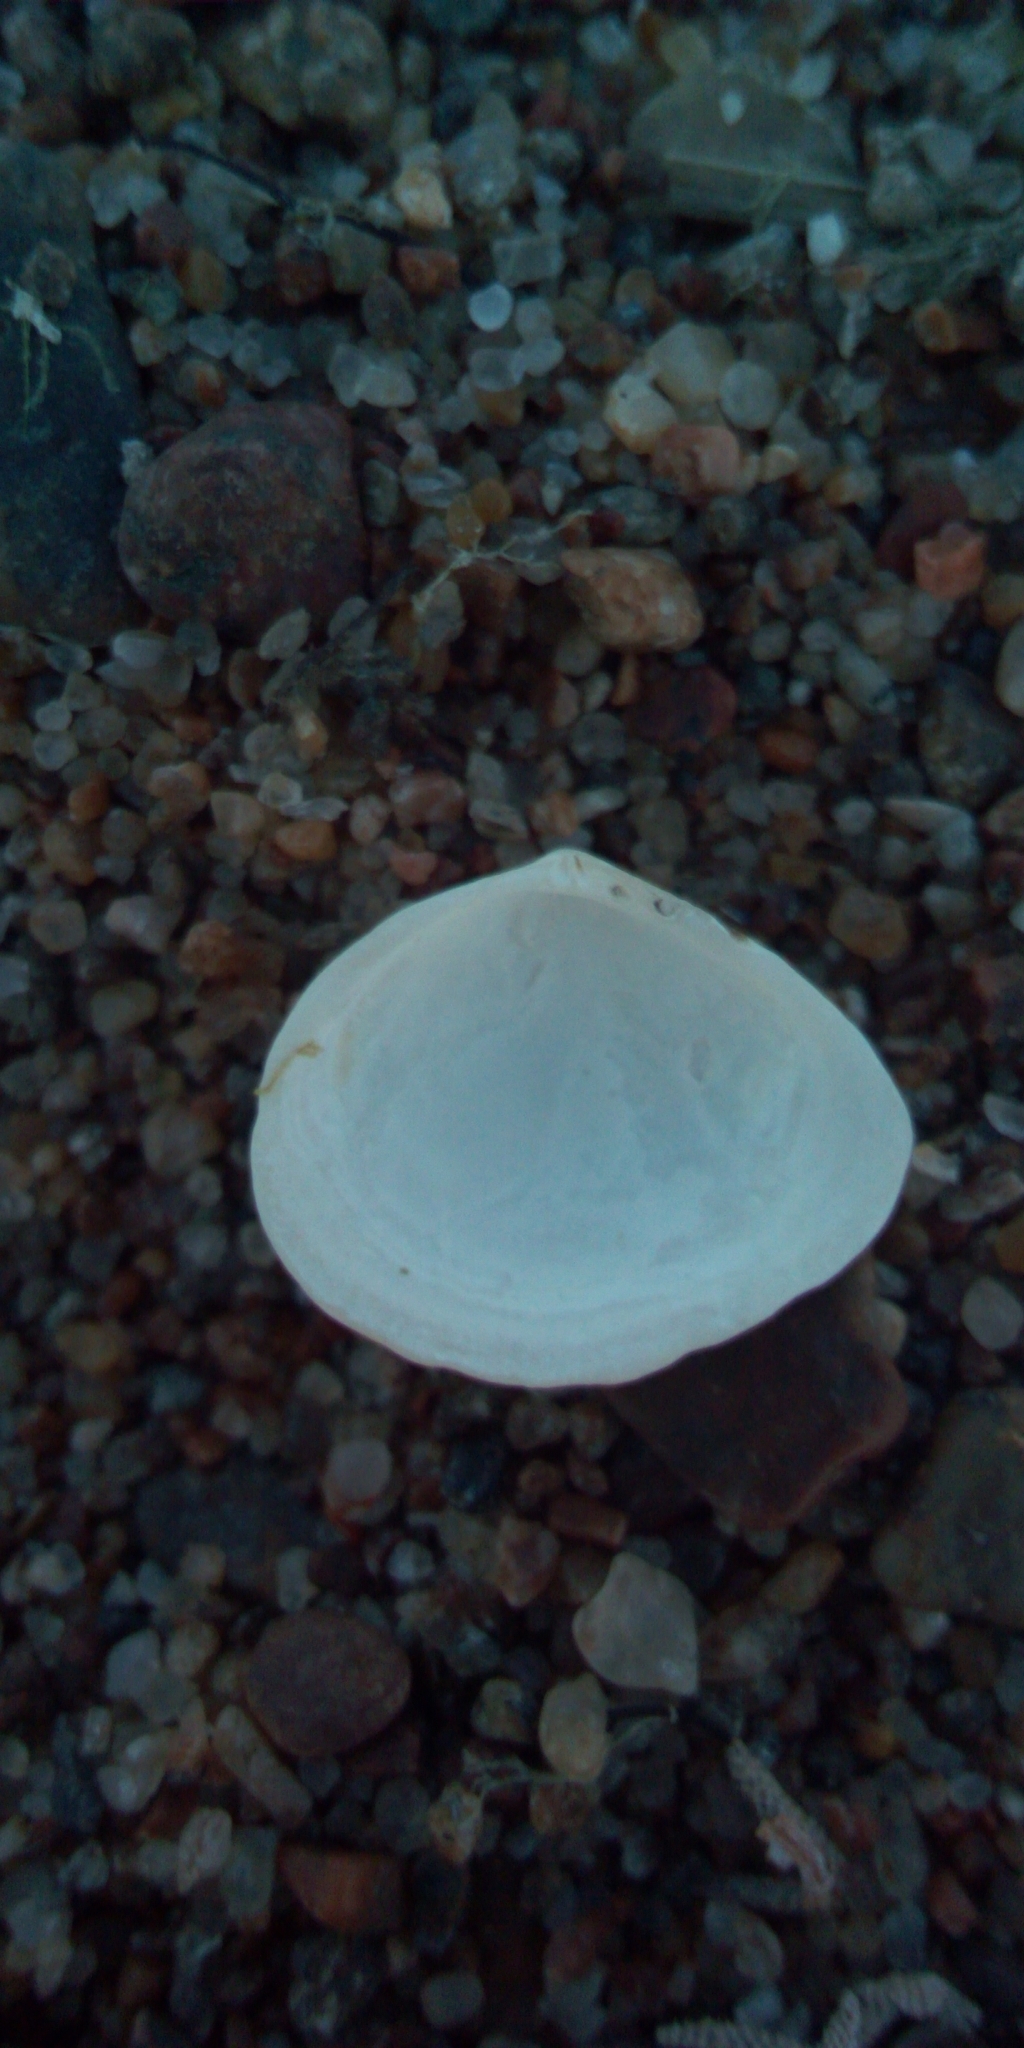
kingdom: Animalia
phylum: Mollusca
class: Bivalvia
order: Cardiida
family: Tellinidae
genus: Macoma
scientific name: Macoma balthica
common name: Baltic tellin
